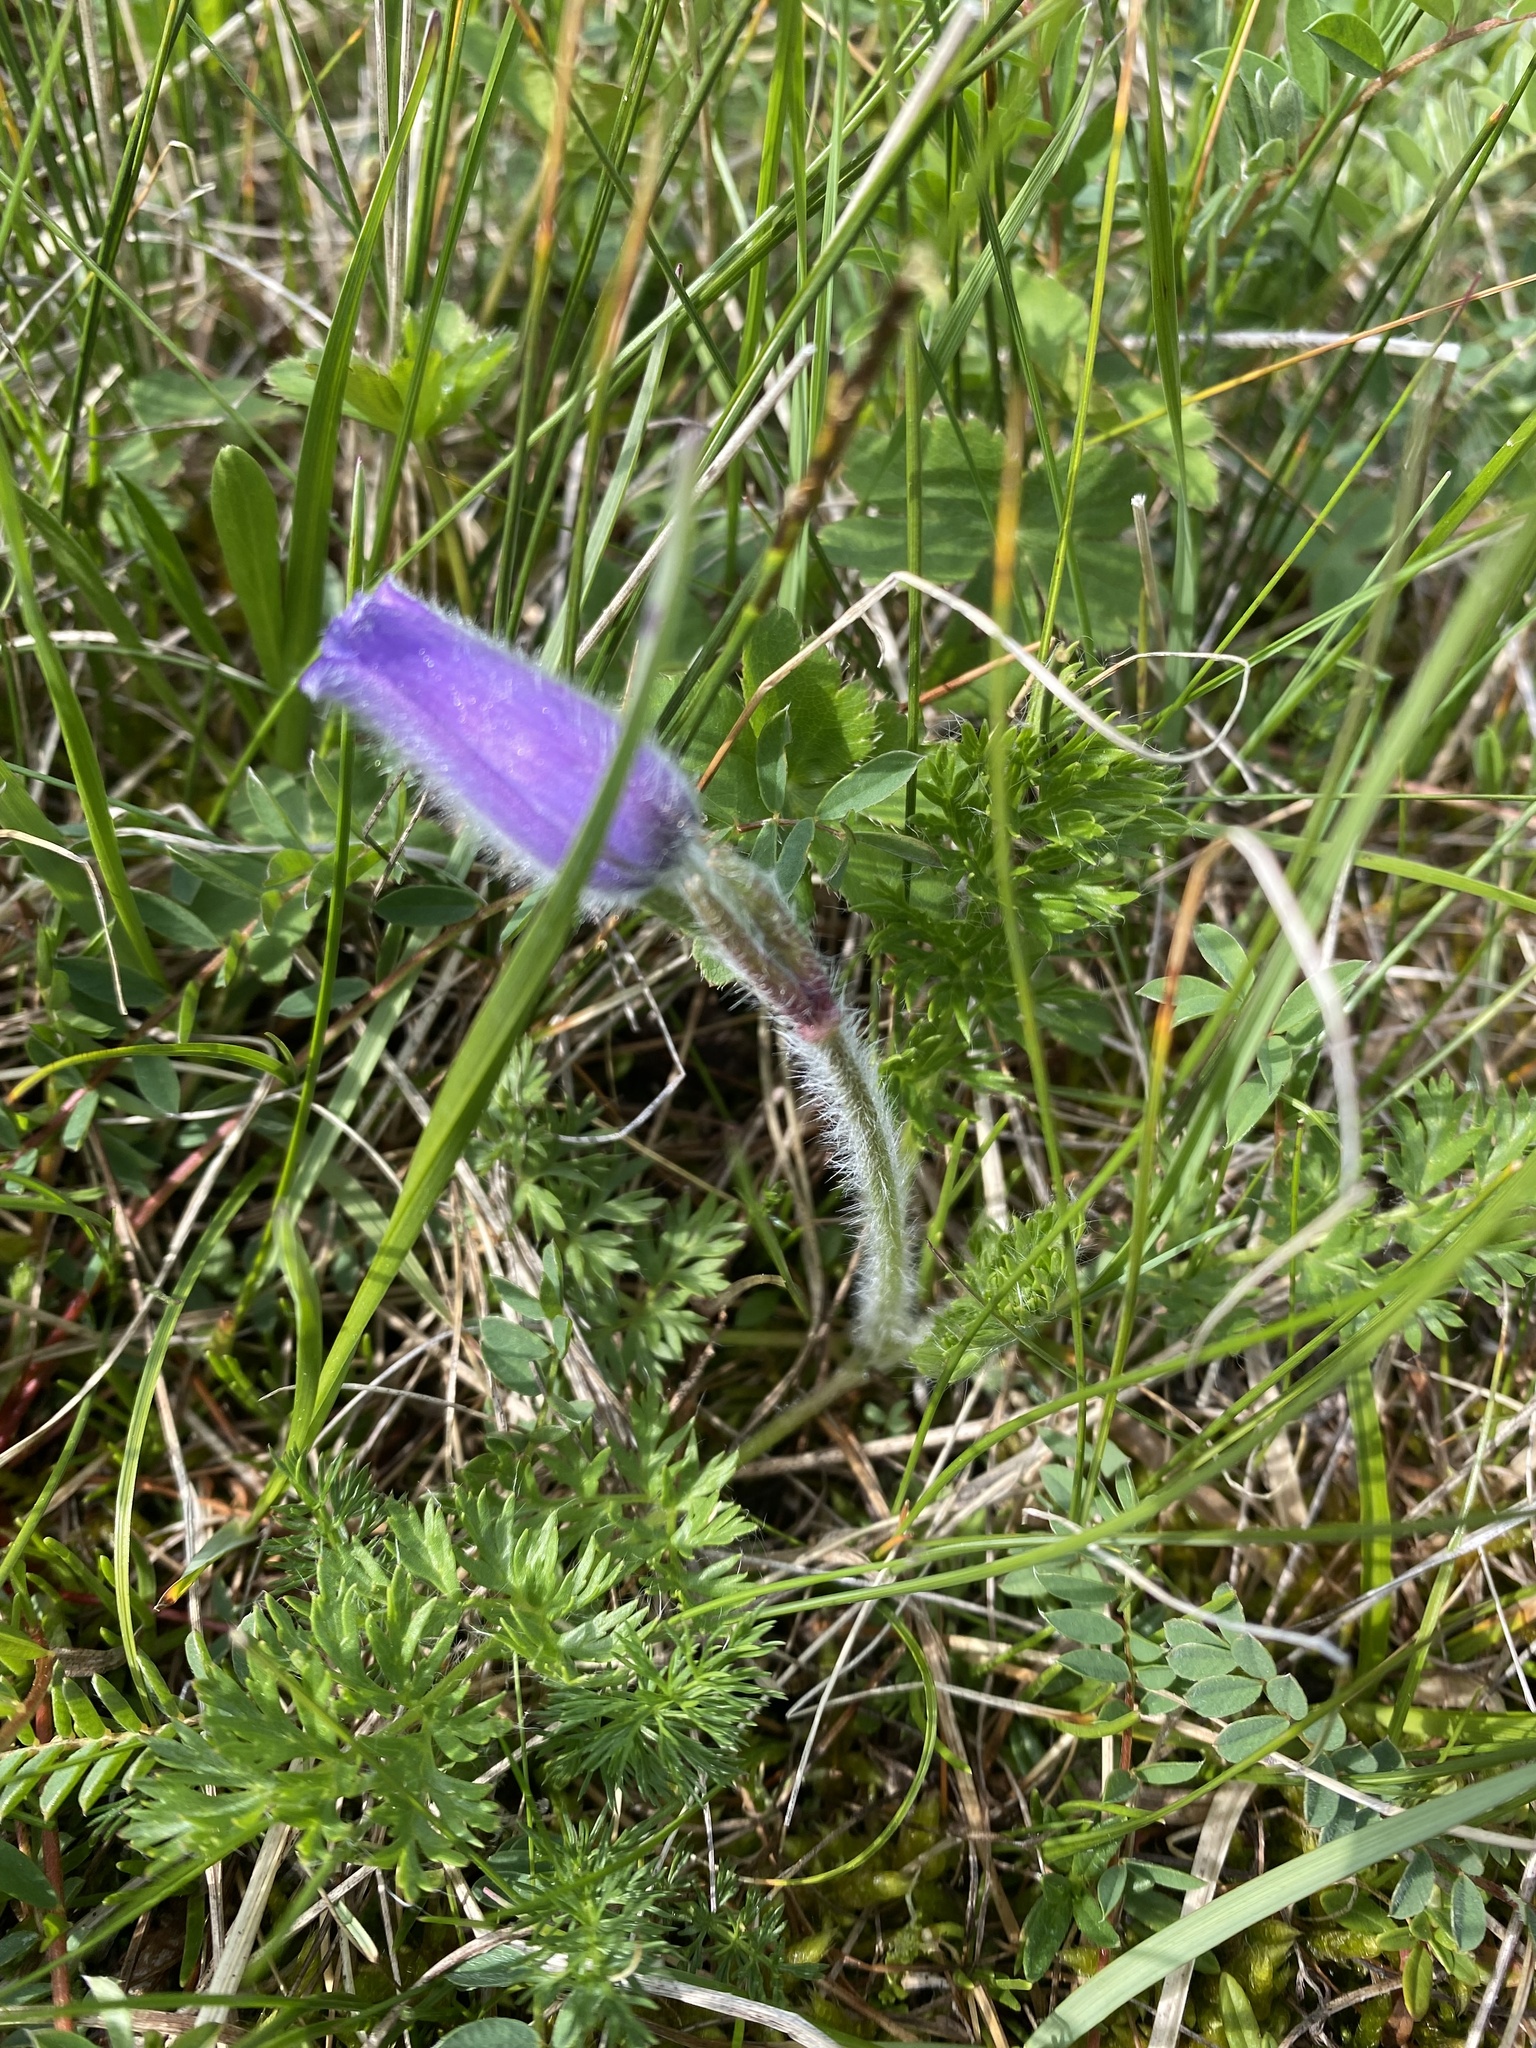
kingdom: Plantae
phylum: Tracheophyta
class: Magnoliopsida
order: Ranunculales
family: Ranunculaceae
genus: Pulsatilla
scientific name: Pulsatilla violacea
